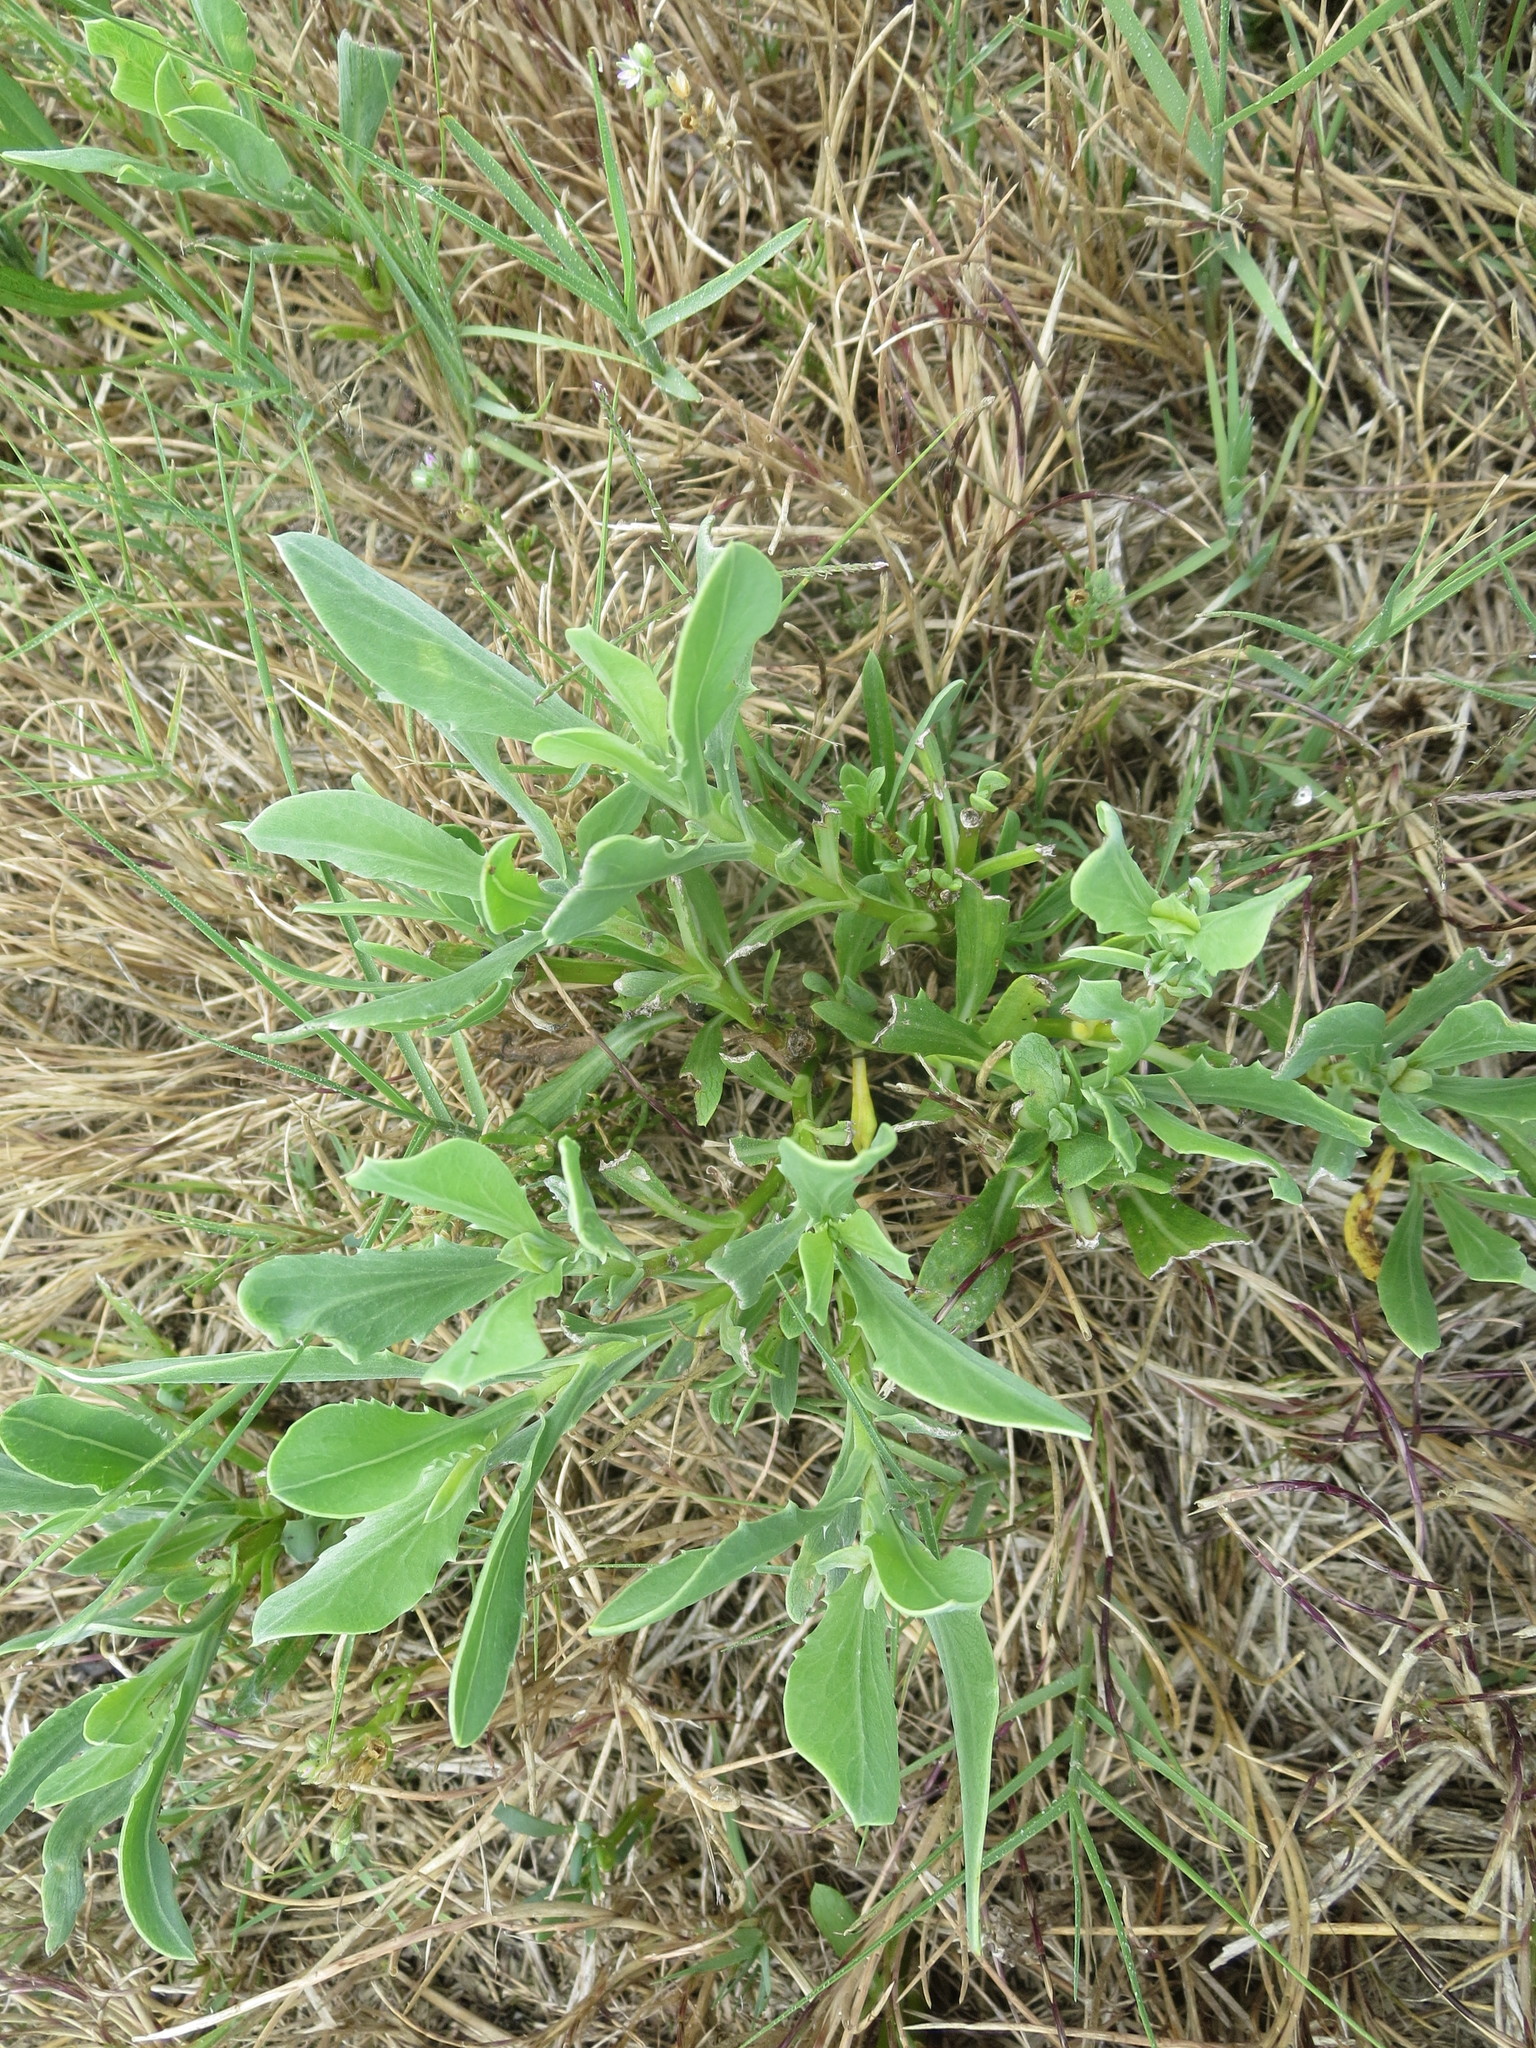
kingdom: Plantae
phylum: Tracheophyta
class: Magnoliopsida
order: Asterales
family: Asteraceae
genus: Borrichia
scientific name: Borrichia frutescens
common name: Sea oxeye
